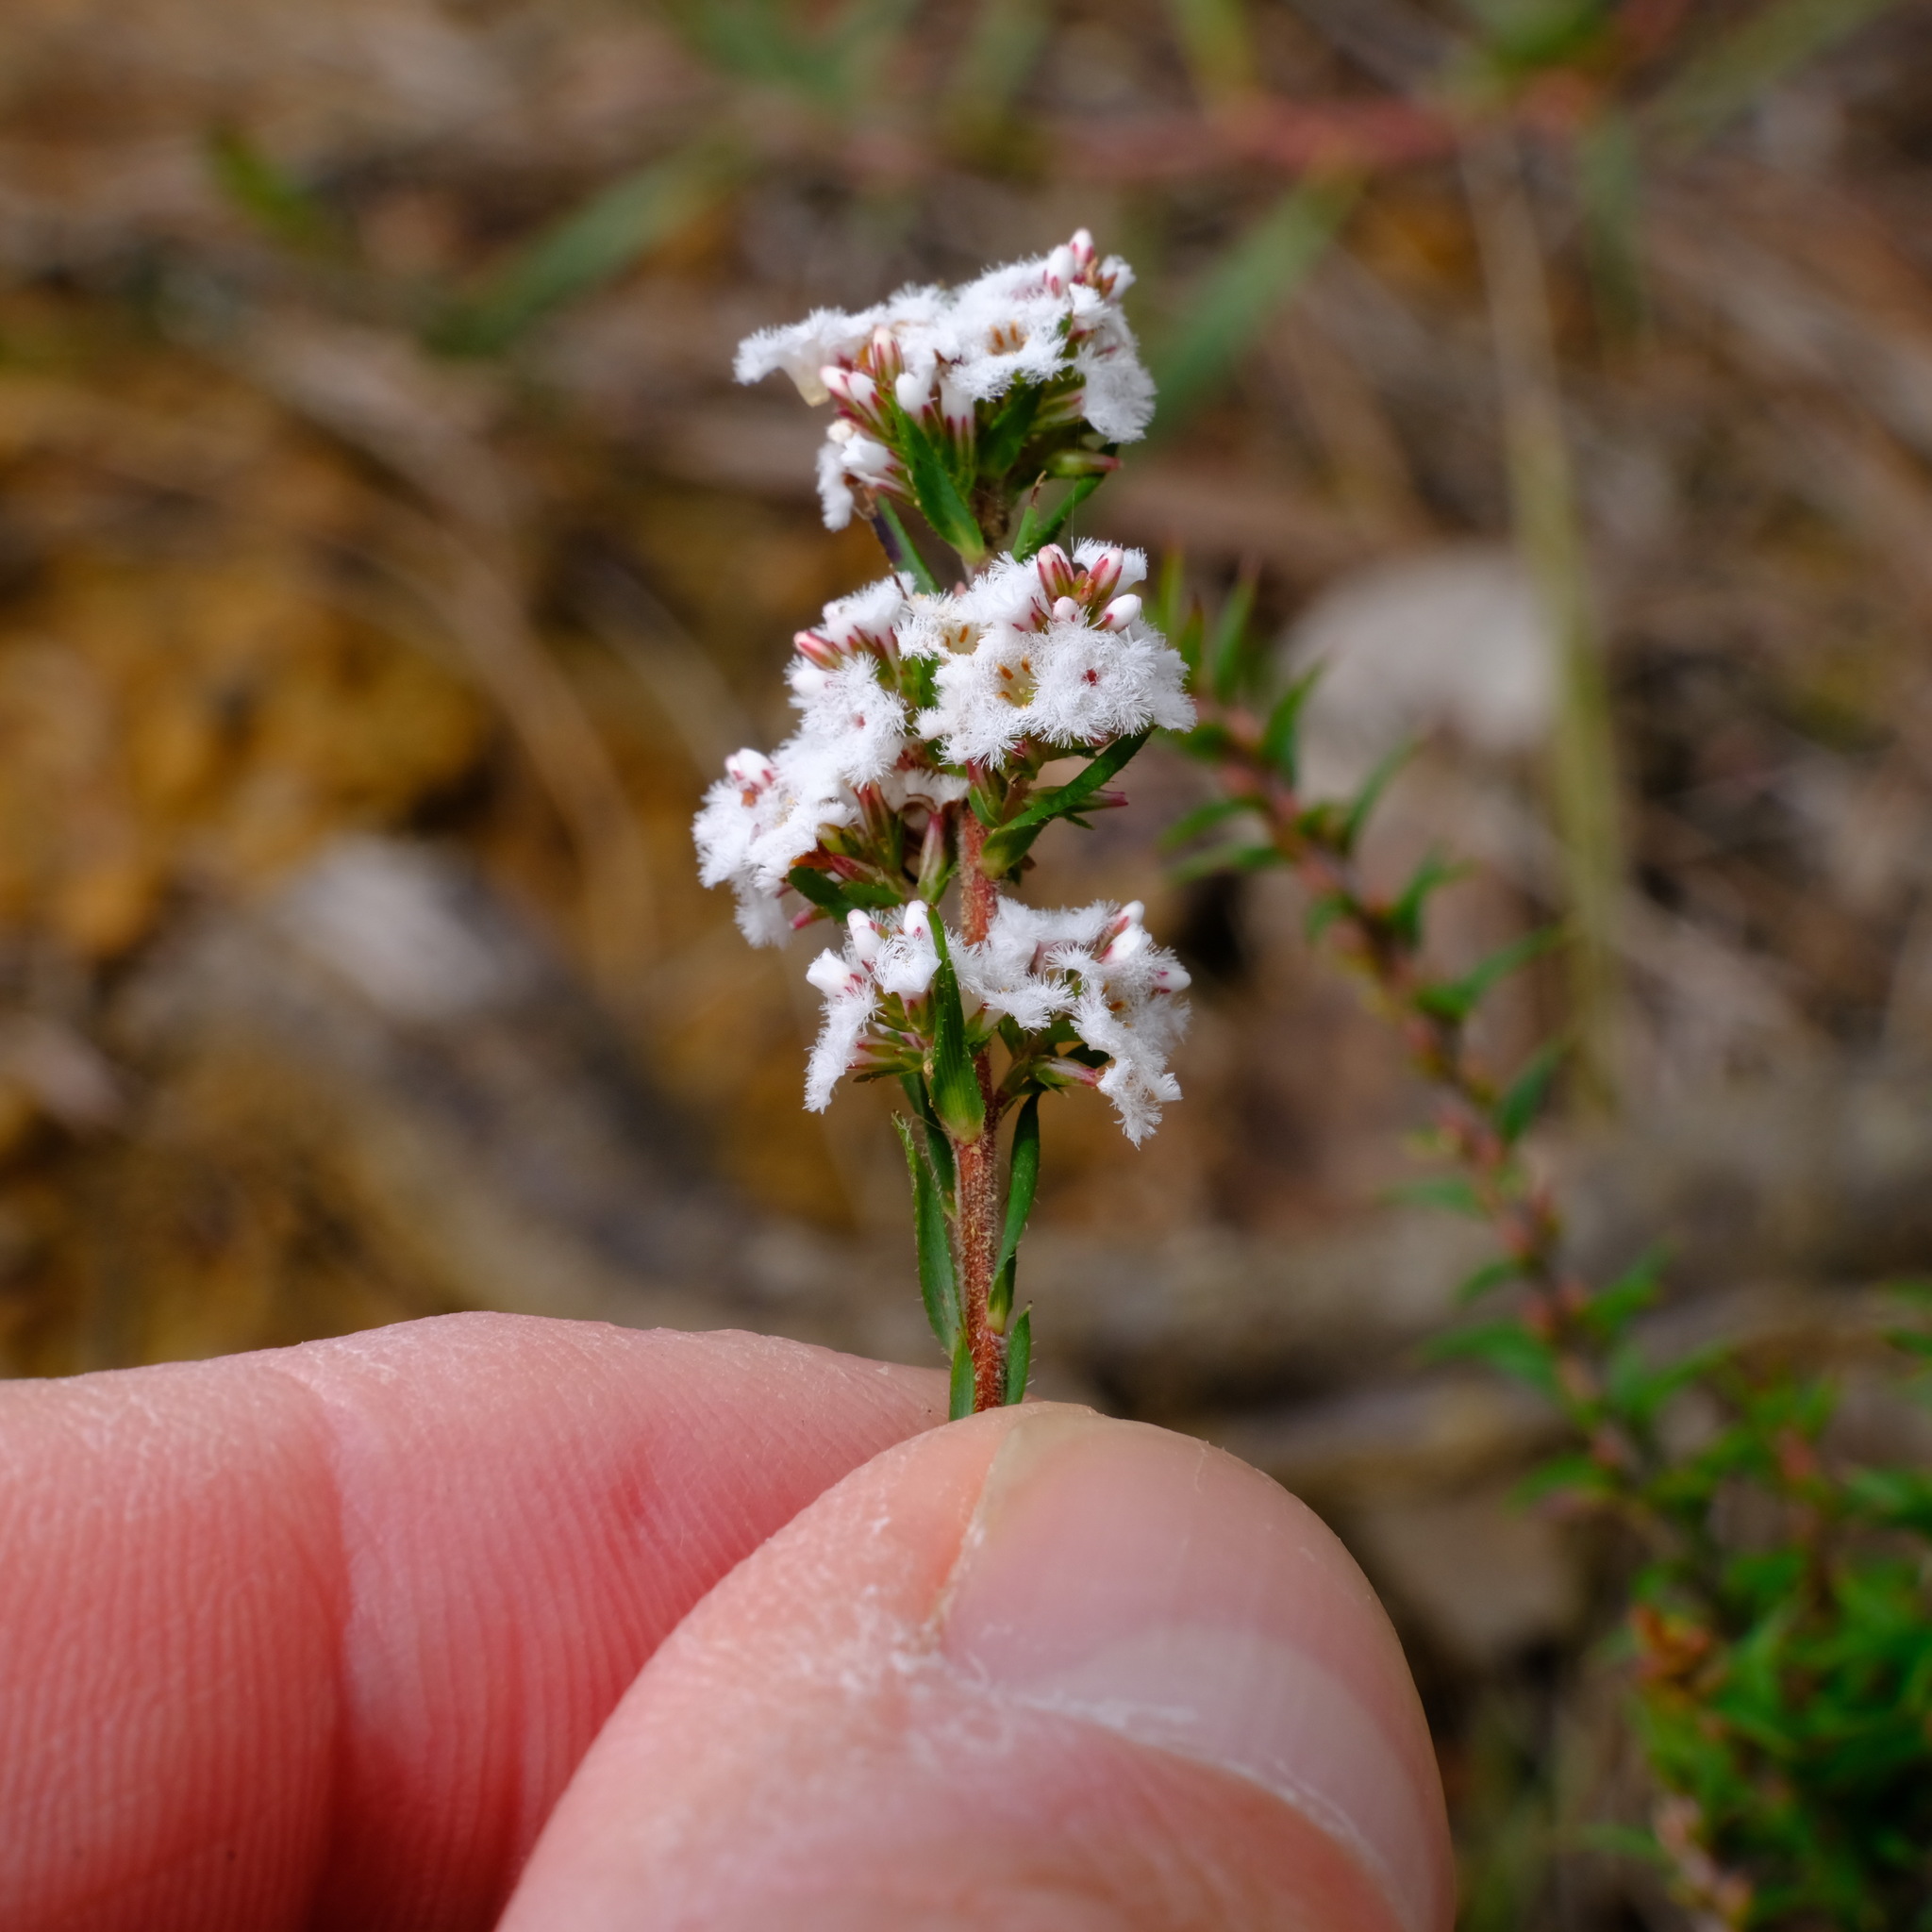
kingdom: Plantae
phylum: Tracheophyta
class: Magnoliopsida
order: Ericales
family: Ericaceae
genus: Leucopogon
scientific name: Leucopogon glacialis
